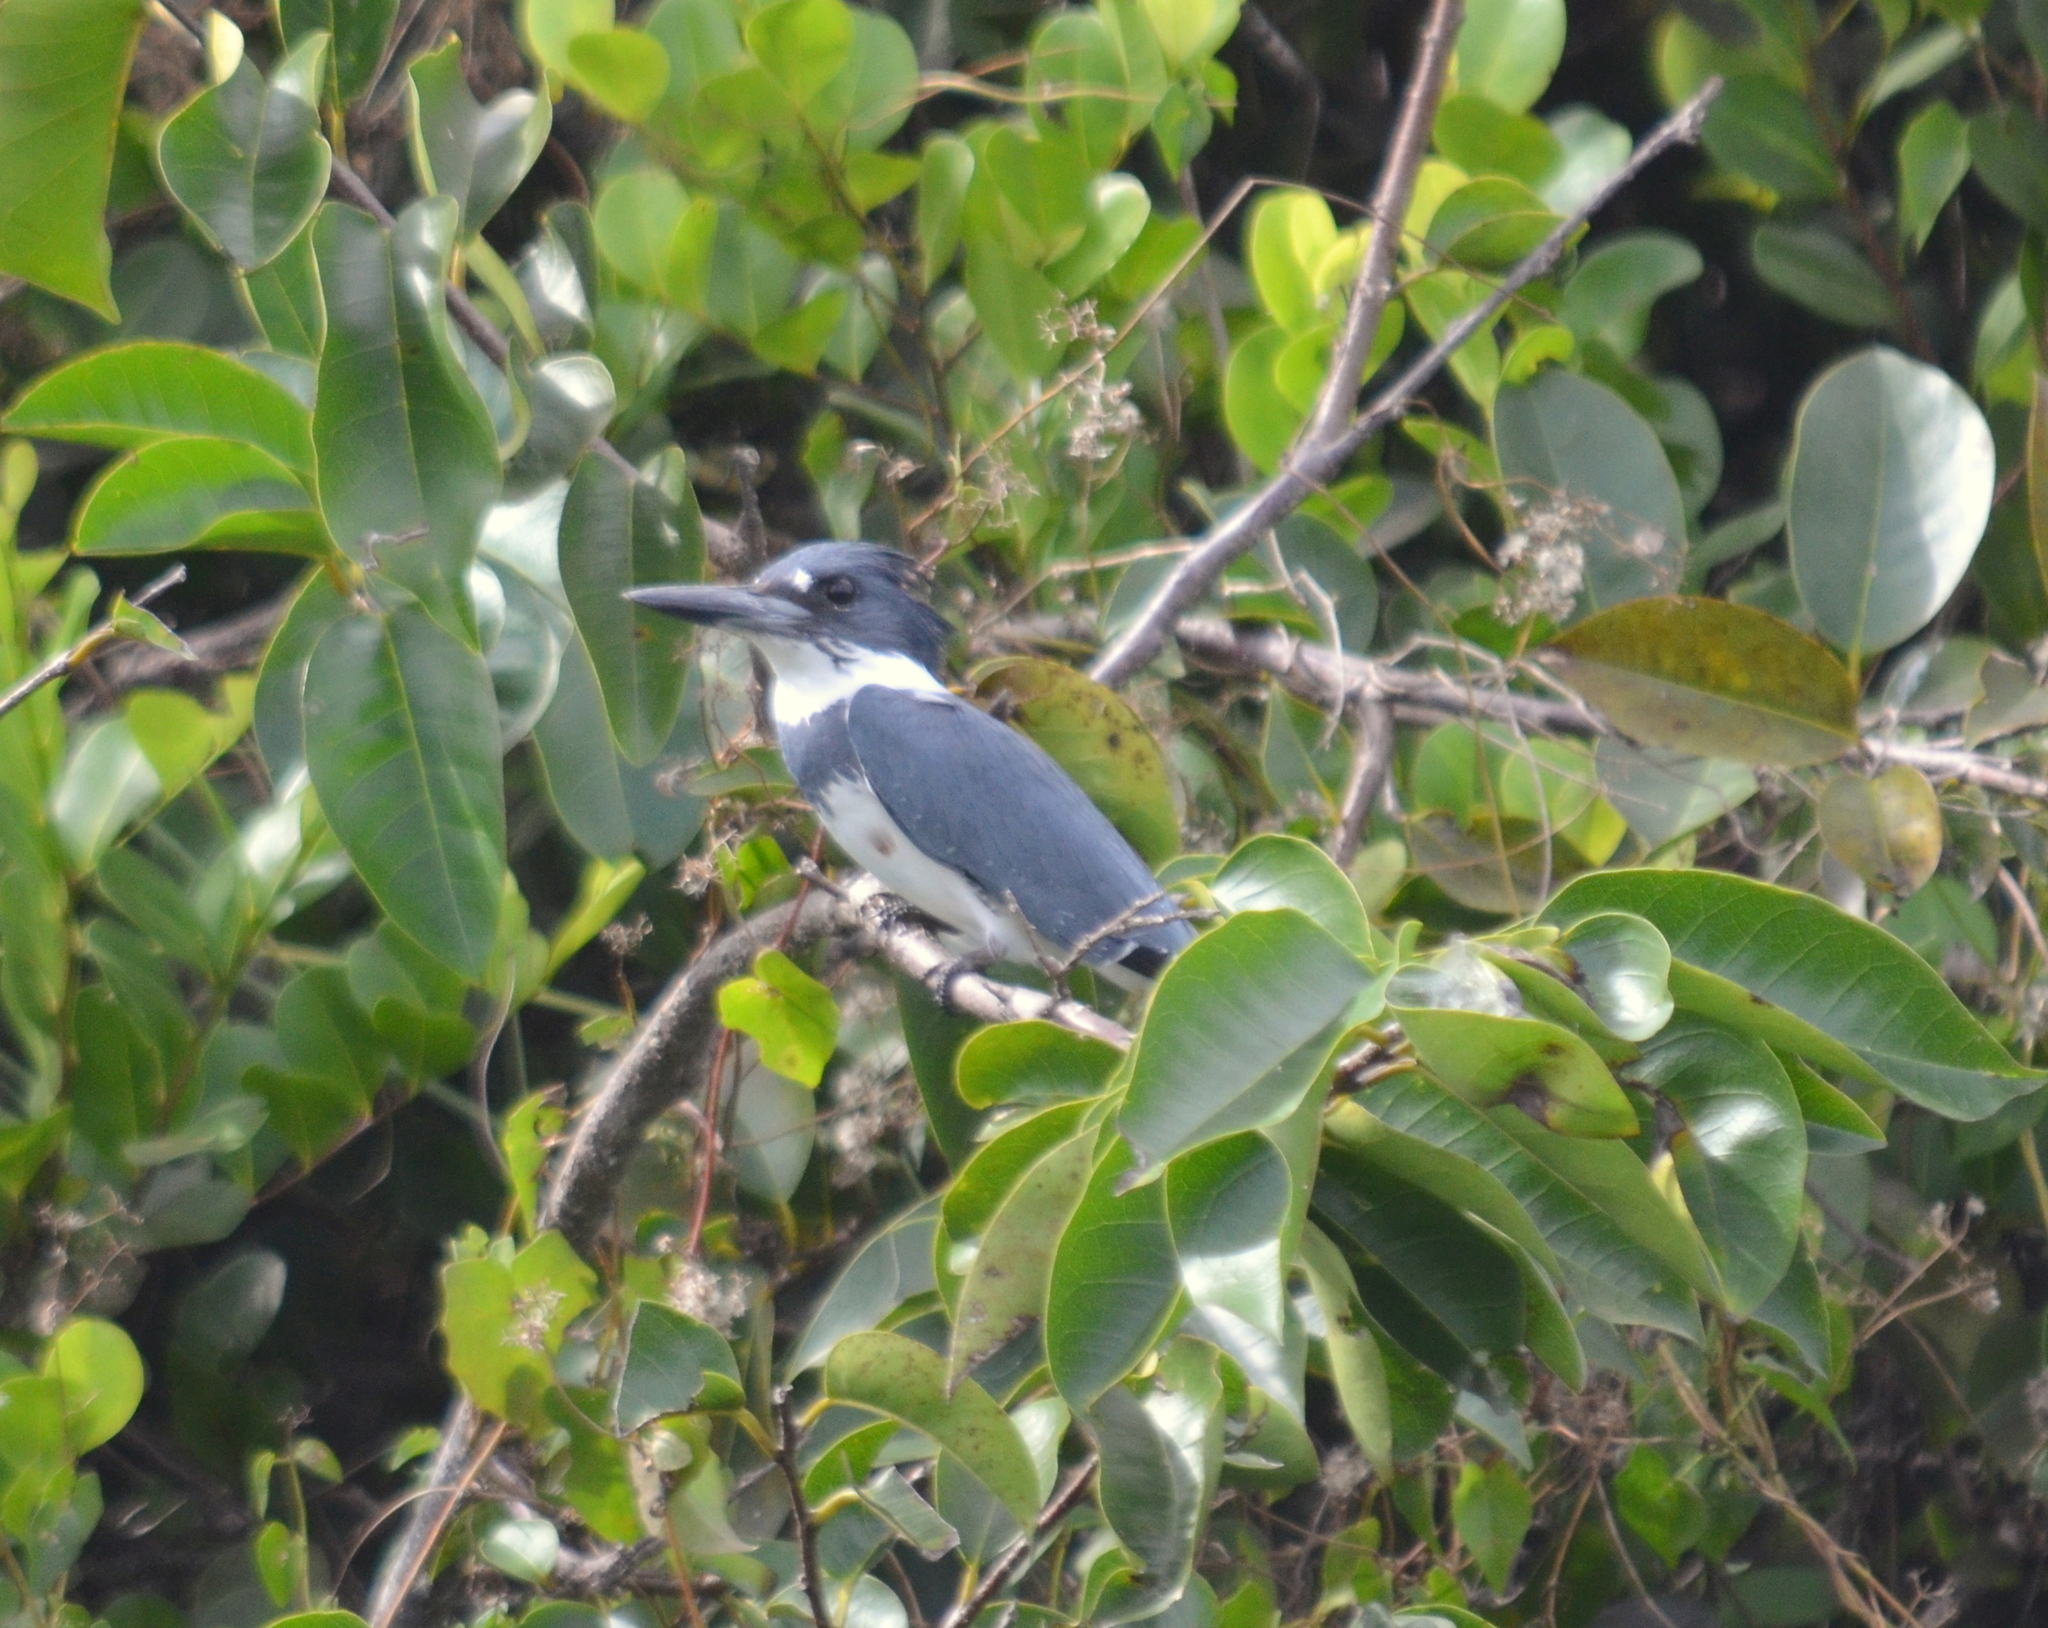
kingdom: Animalia
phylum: Chordata
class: Aves
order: Coraciiformes
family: Alcedinidae
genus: Megaceryle
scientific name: Megaceryle alcyon
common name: Belted kingfisher
